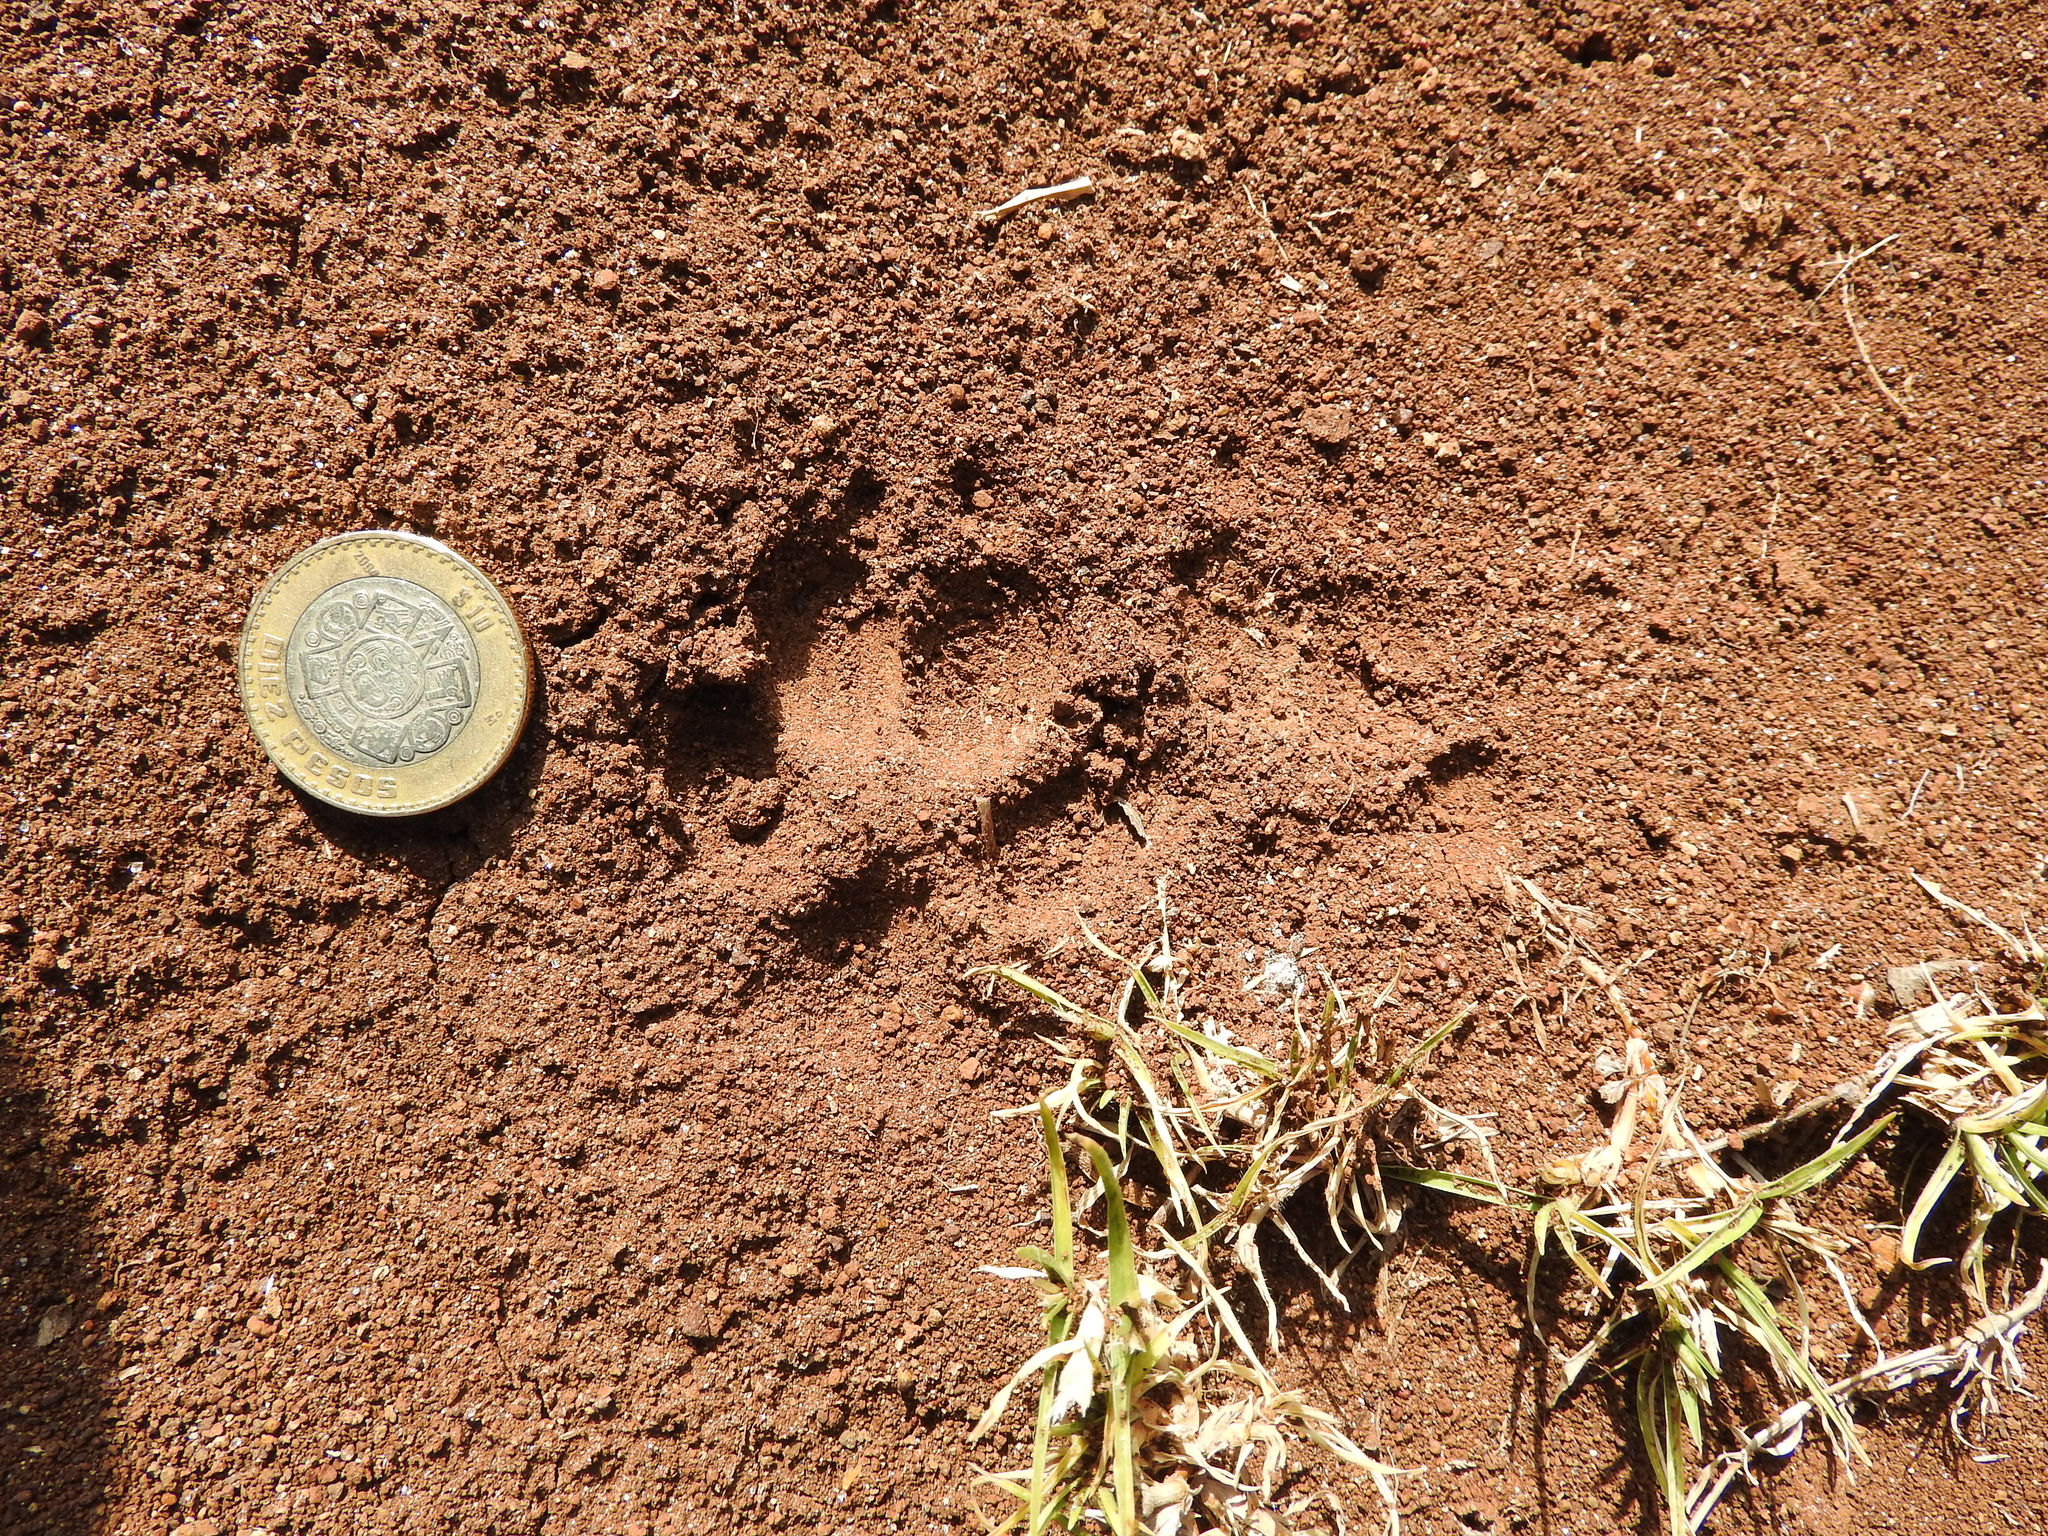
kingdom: Animalia
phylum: Chordata
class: Mammalia
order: Carnivora
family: Canidae
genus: Canis
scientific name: Canis latrans
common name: Coyote
